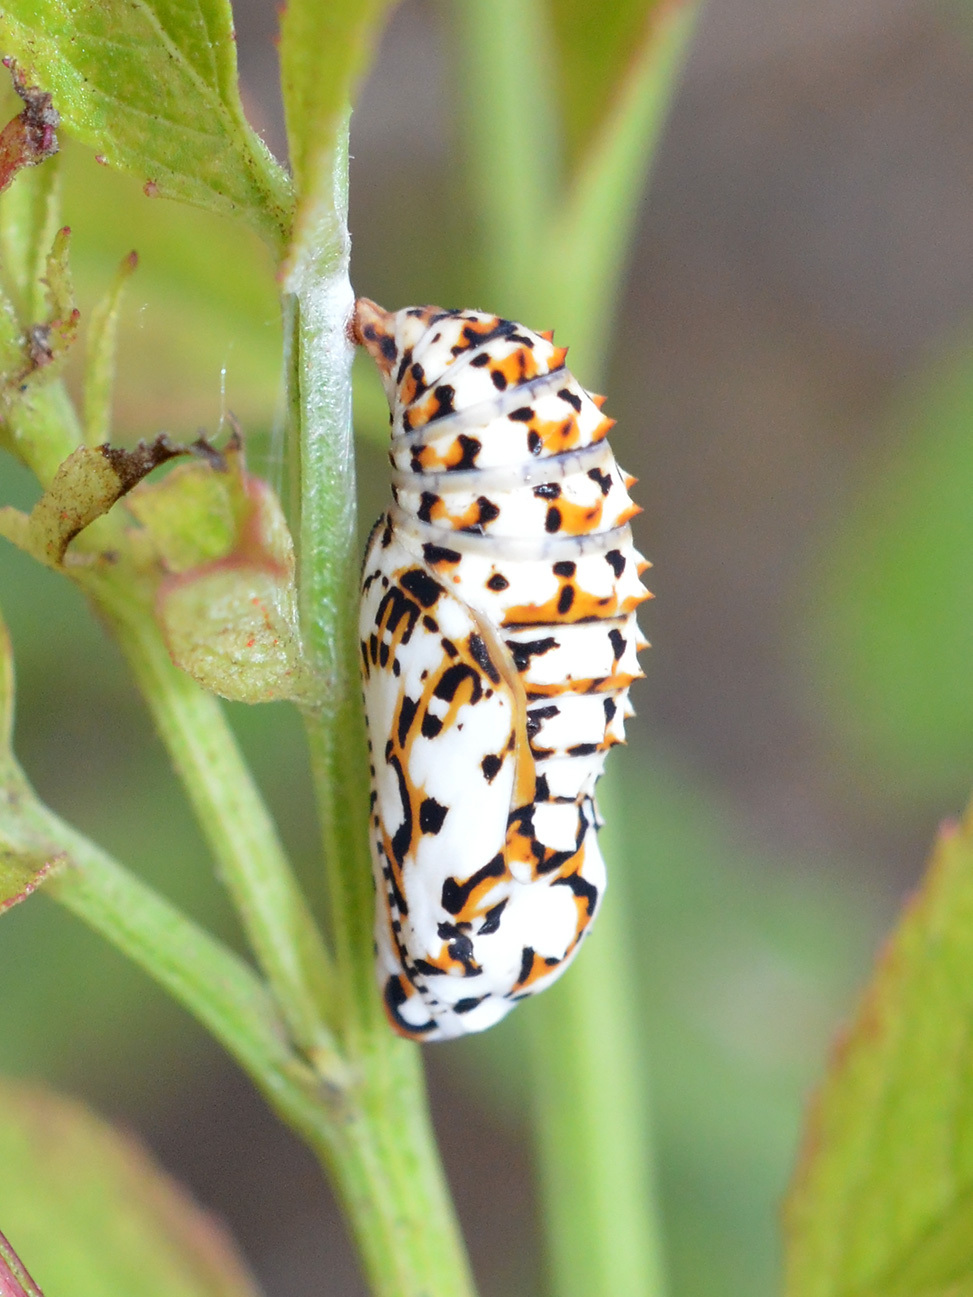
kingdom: Animalia
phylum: Arthropoda
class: Insecta
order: Lepidoptera
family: Nymphalidae
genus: Melitaea
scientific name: Melitaea didyma
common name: Spotted fritillary
